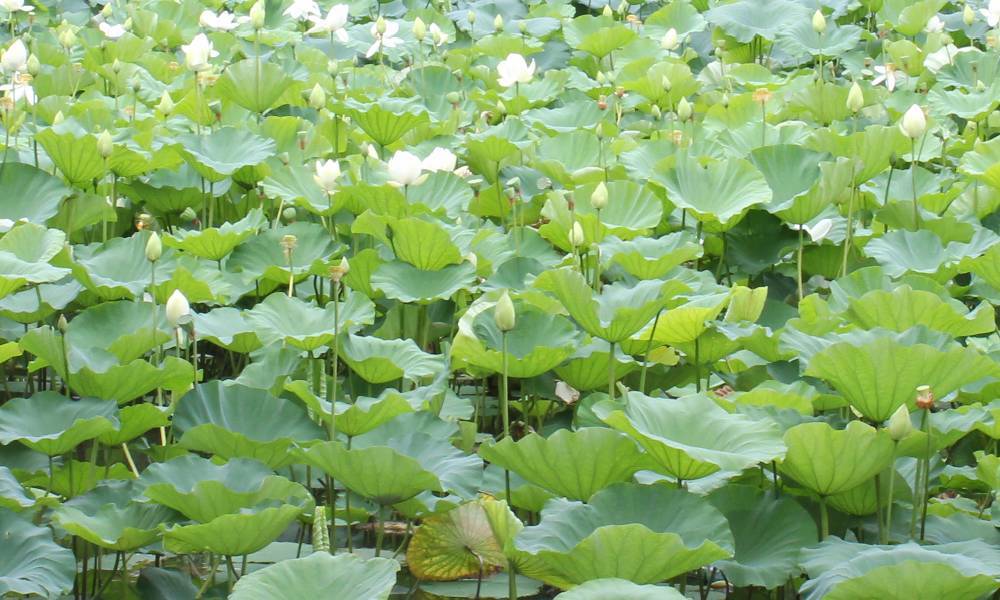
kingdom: Plantae
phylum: Tracheophyta
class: Magnoliopsida
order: Proteales
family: Nelumbonaceae
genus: Nelumbo
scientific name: Nelumbo nucifera
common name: Sacred lotus
